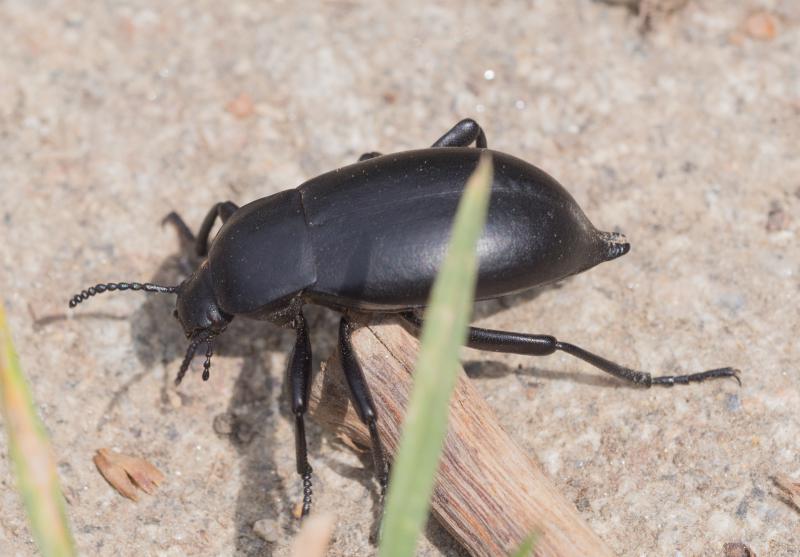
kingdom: Animalia
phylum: Arthropoda
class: Insecta
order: Coleoptera
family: Tenebrionidae
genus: Blaps
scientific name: Blaps lethifera
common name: Darkling beetle
